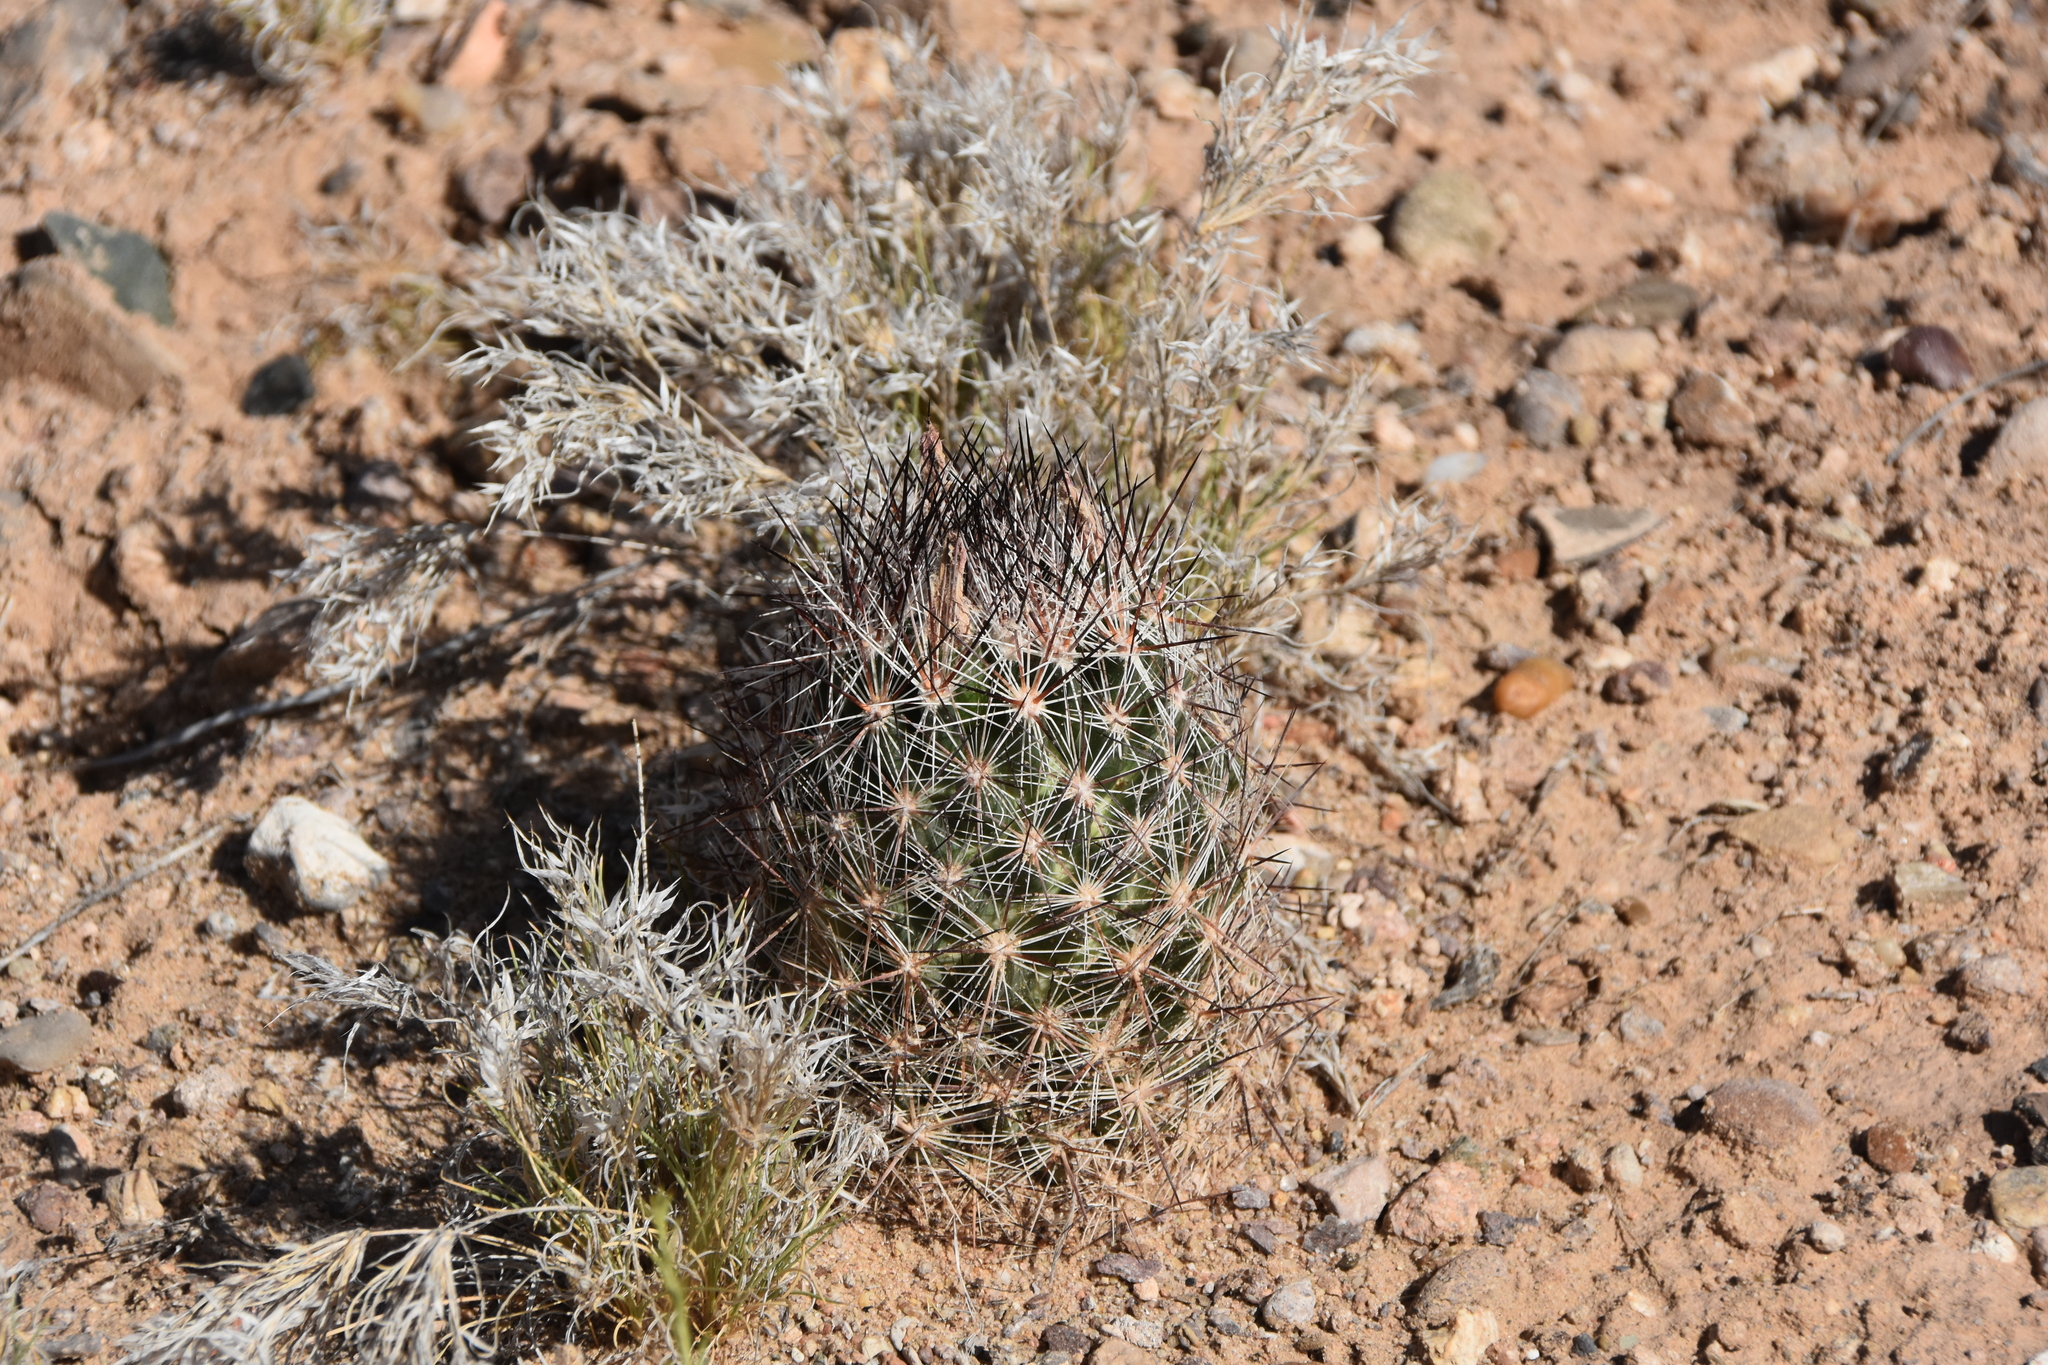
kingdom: Plantae
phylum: Tracheophyta
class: Magnoliopsida
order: Caryophyllales
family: Cactaceae
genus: Pelecyphora
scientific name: Pelecyphora vivipara
